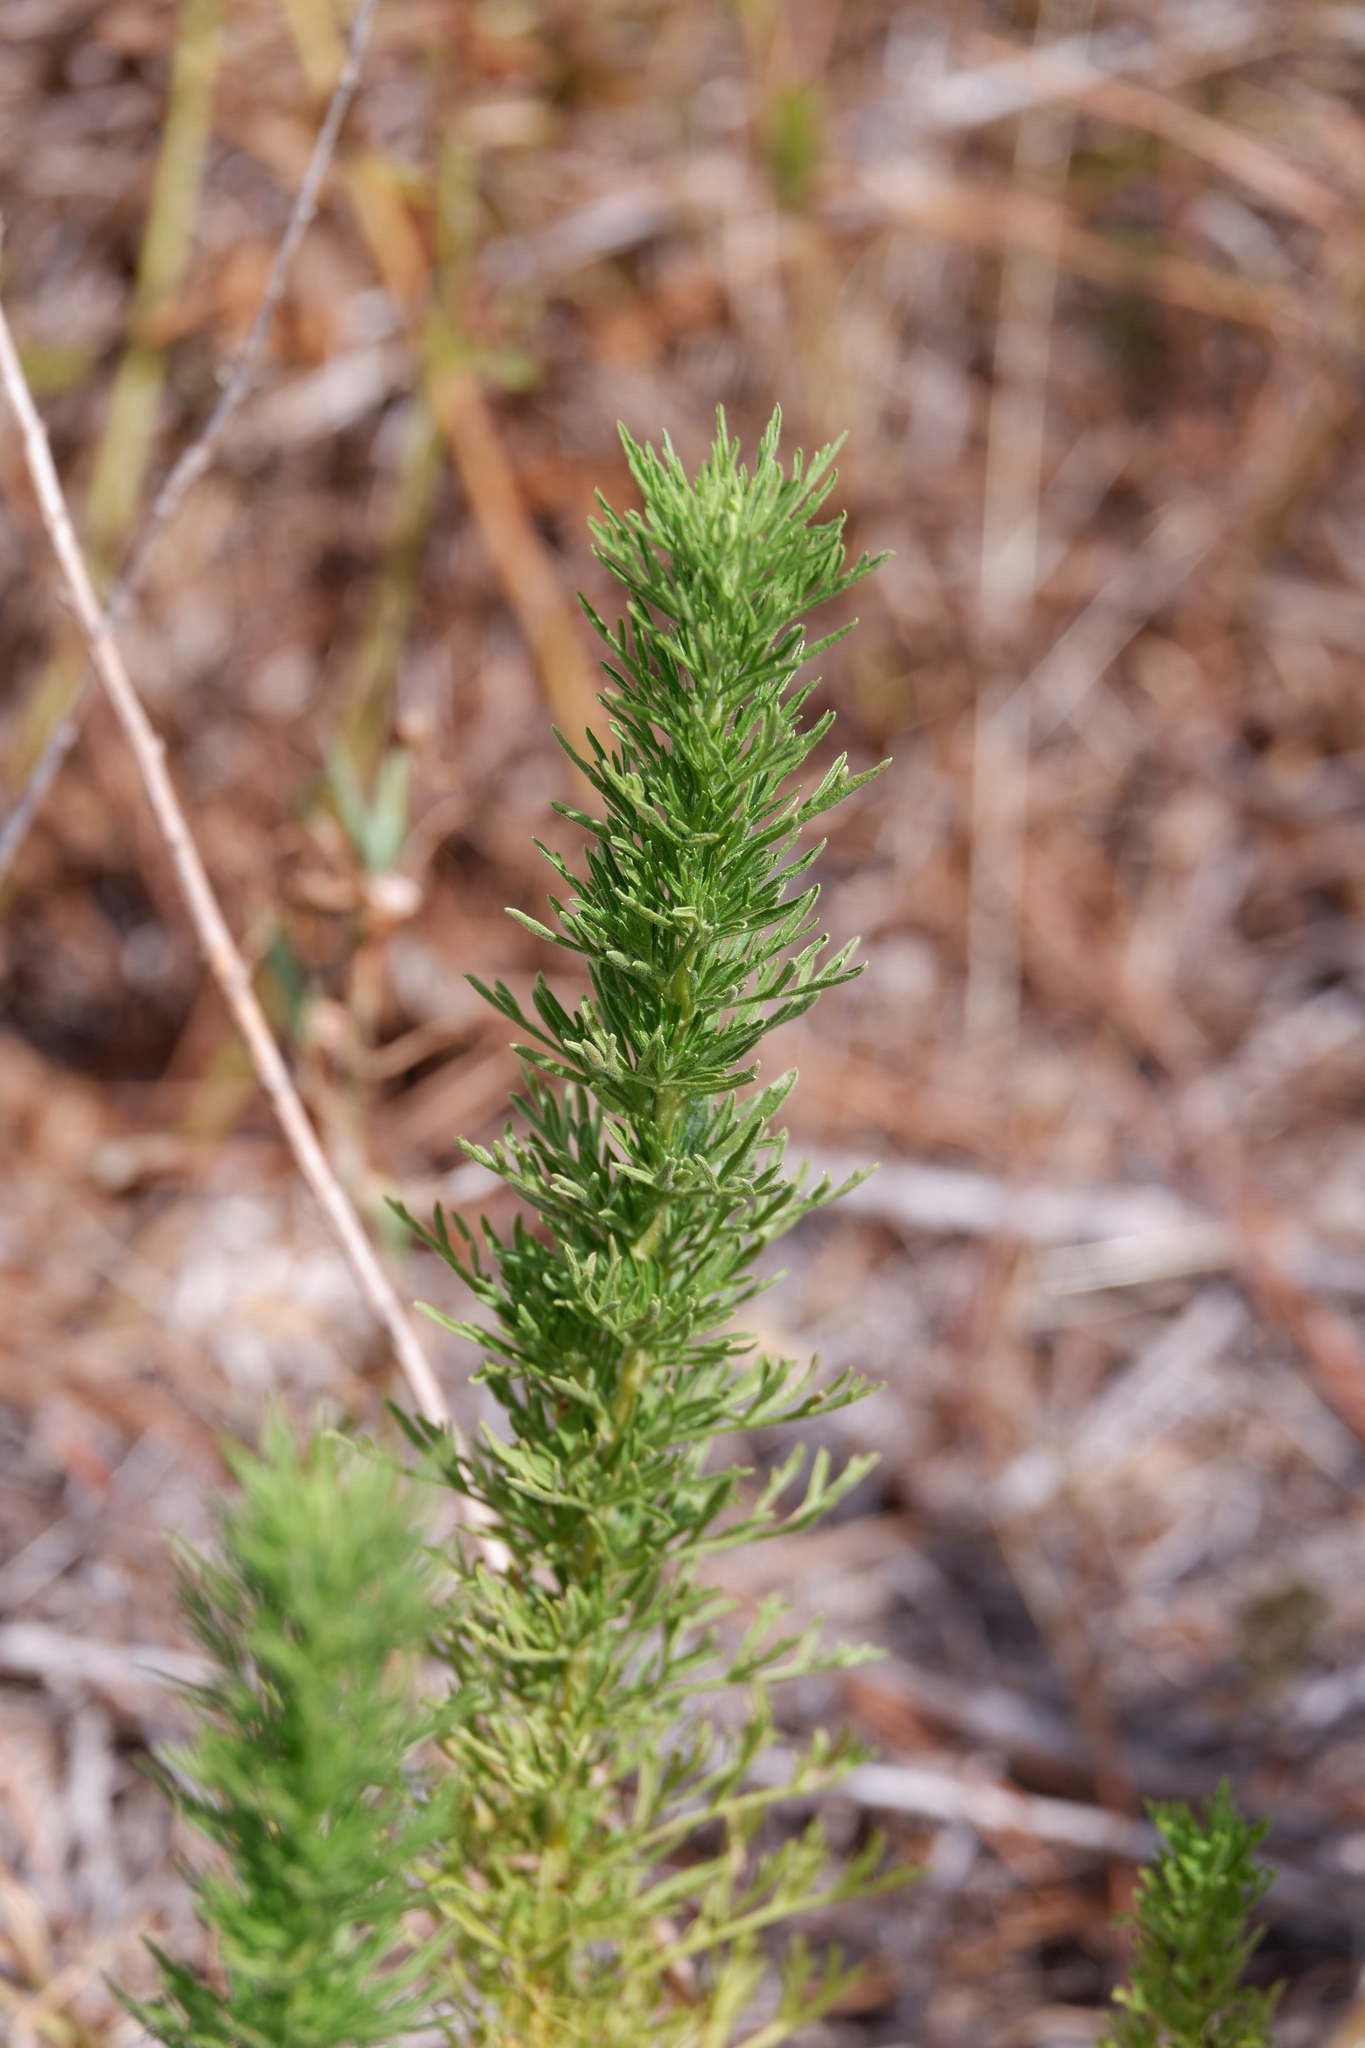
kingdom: Plantae
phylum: Tracheophyta
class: Magnoliopsida
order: Asterales
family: Asteraceae
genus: Eupatorium
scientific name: Eupatorium compositifolium
